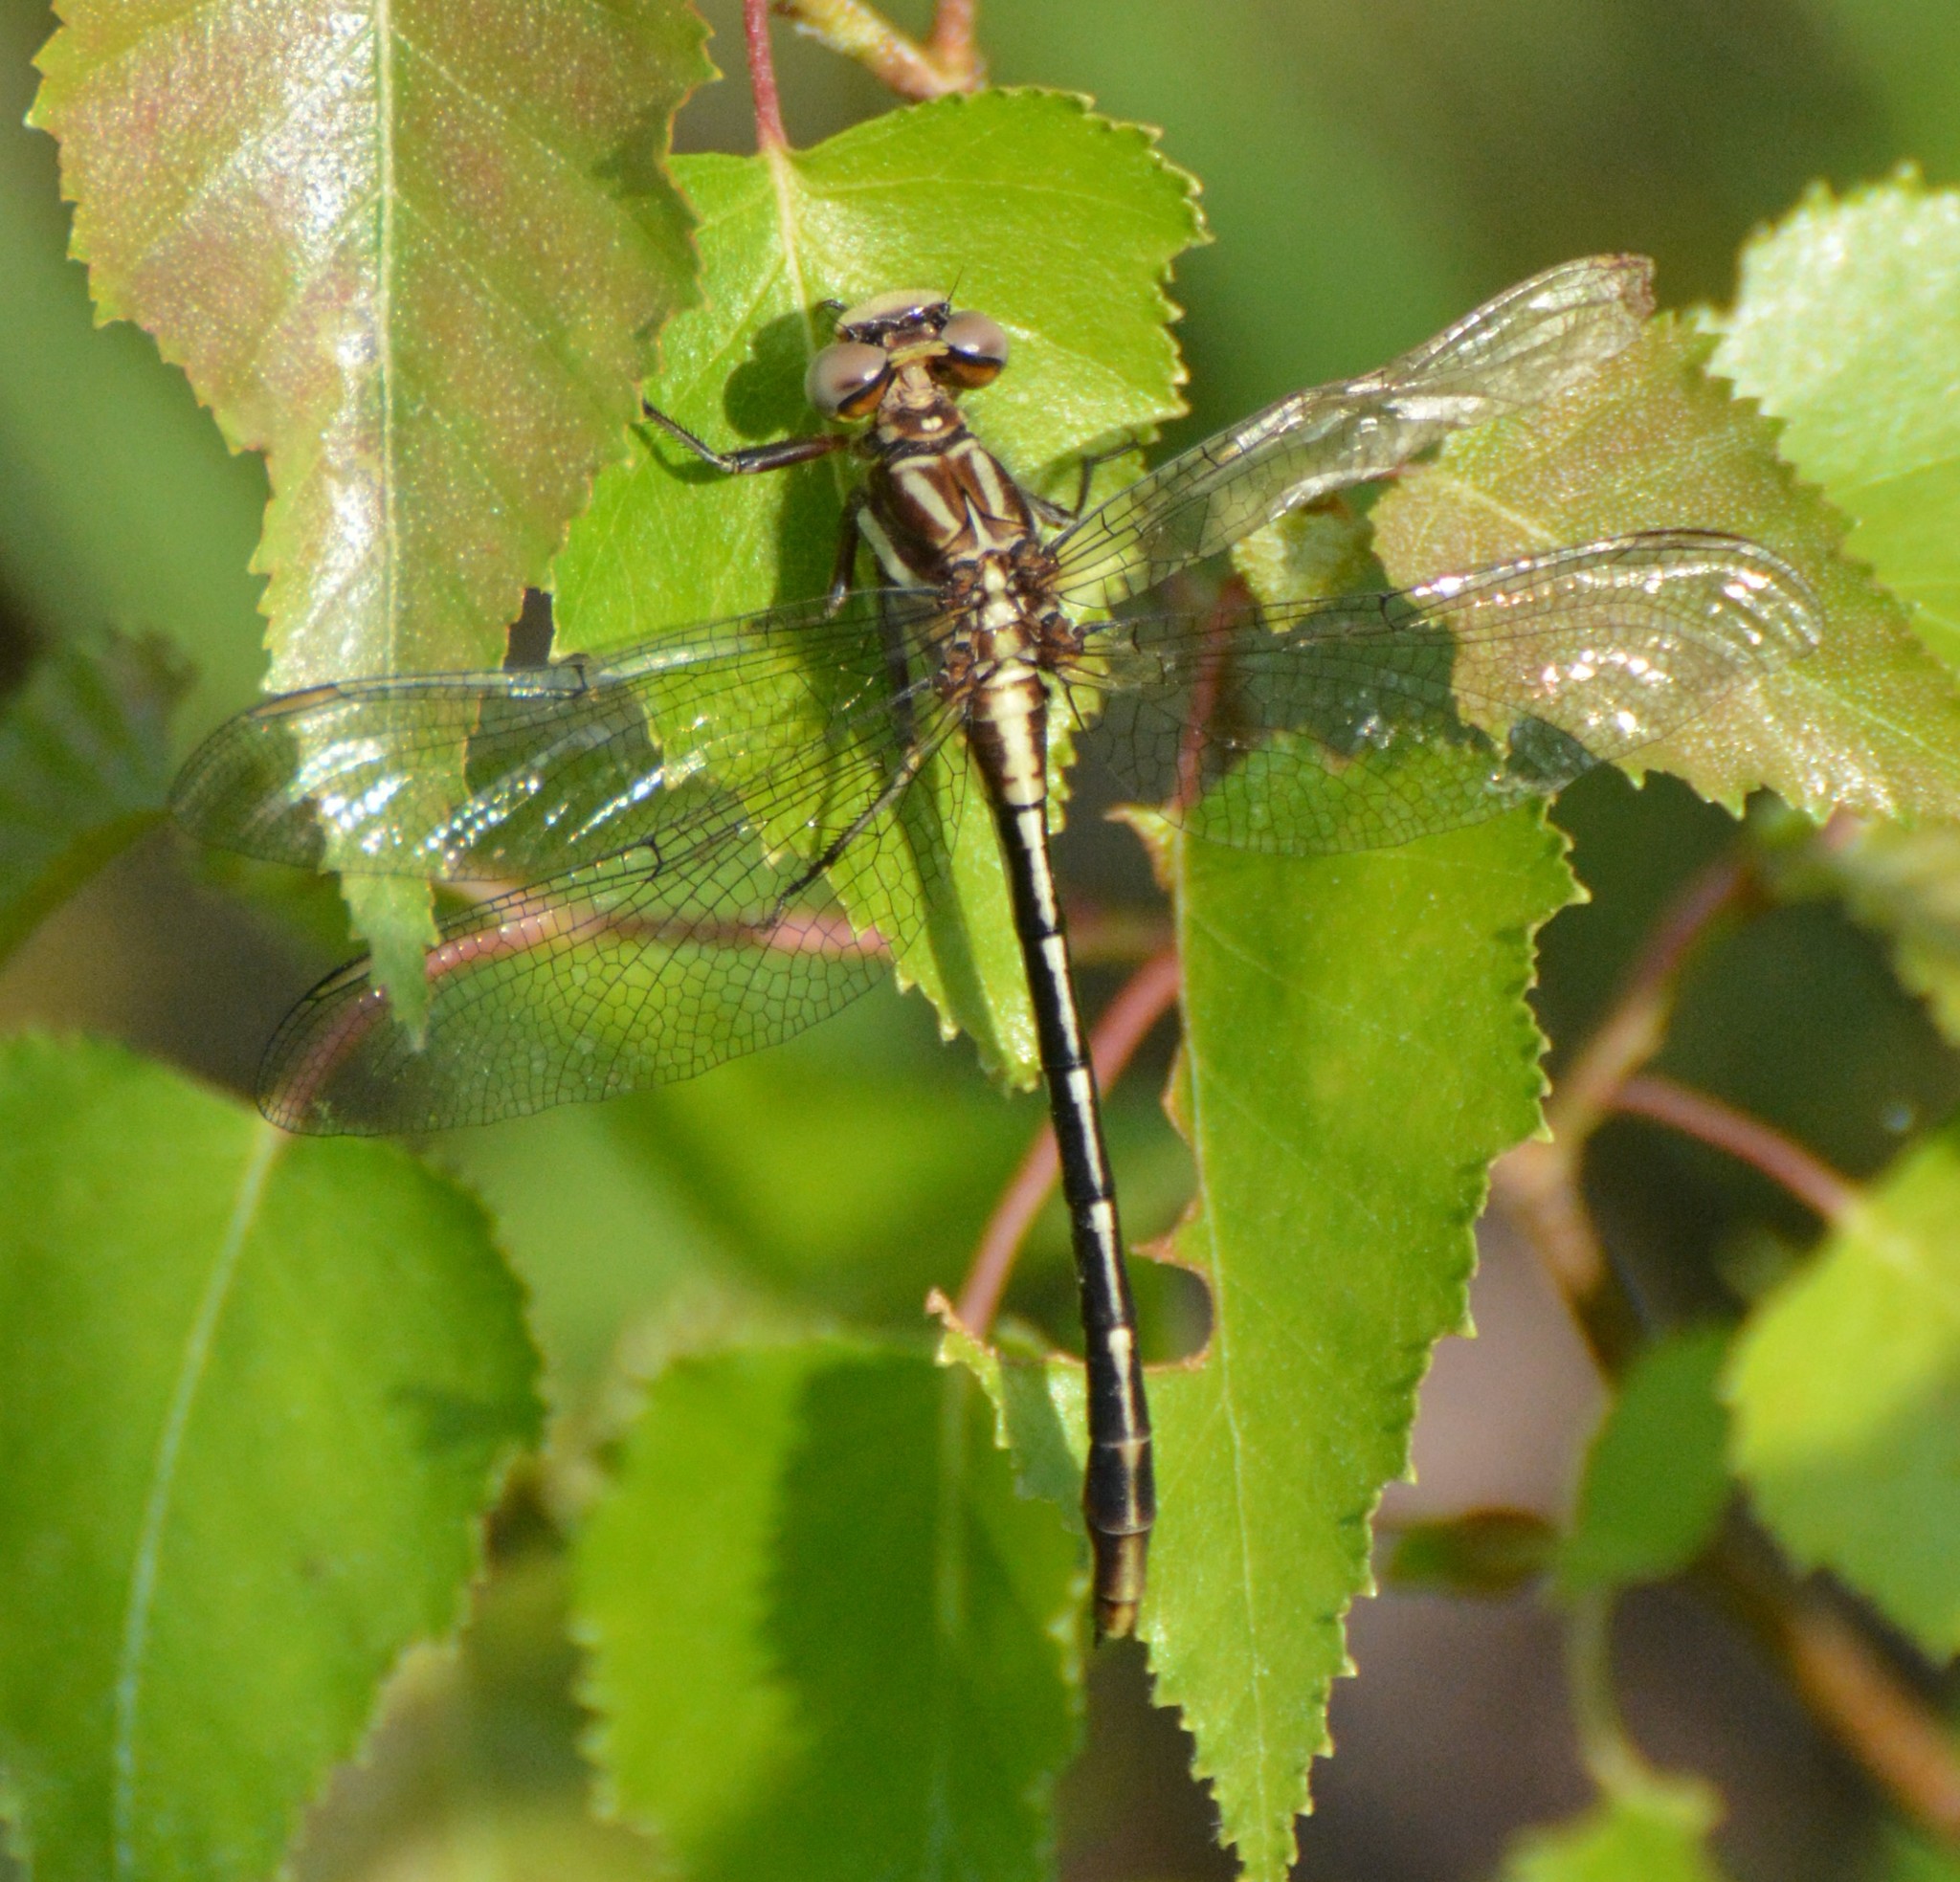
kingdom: Animalia
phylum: Arthropoda
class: Insecta
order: Odonata
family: Gomphidae
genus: Phanogomphus
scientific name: Phanogomphus exilis
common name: Lancet clubtail
